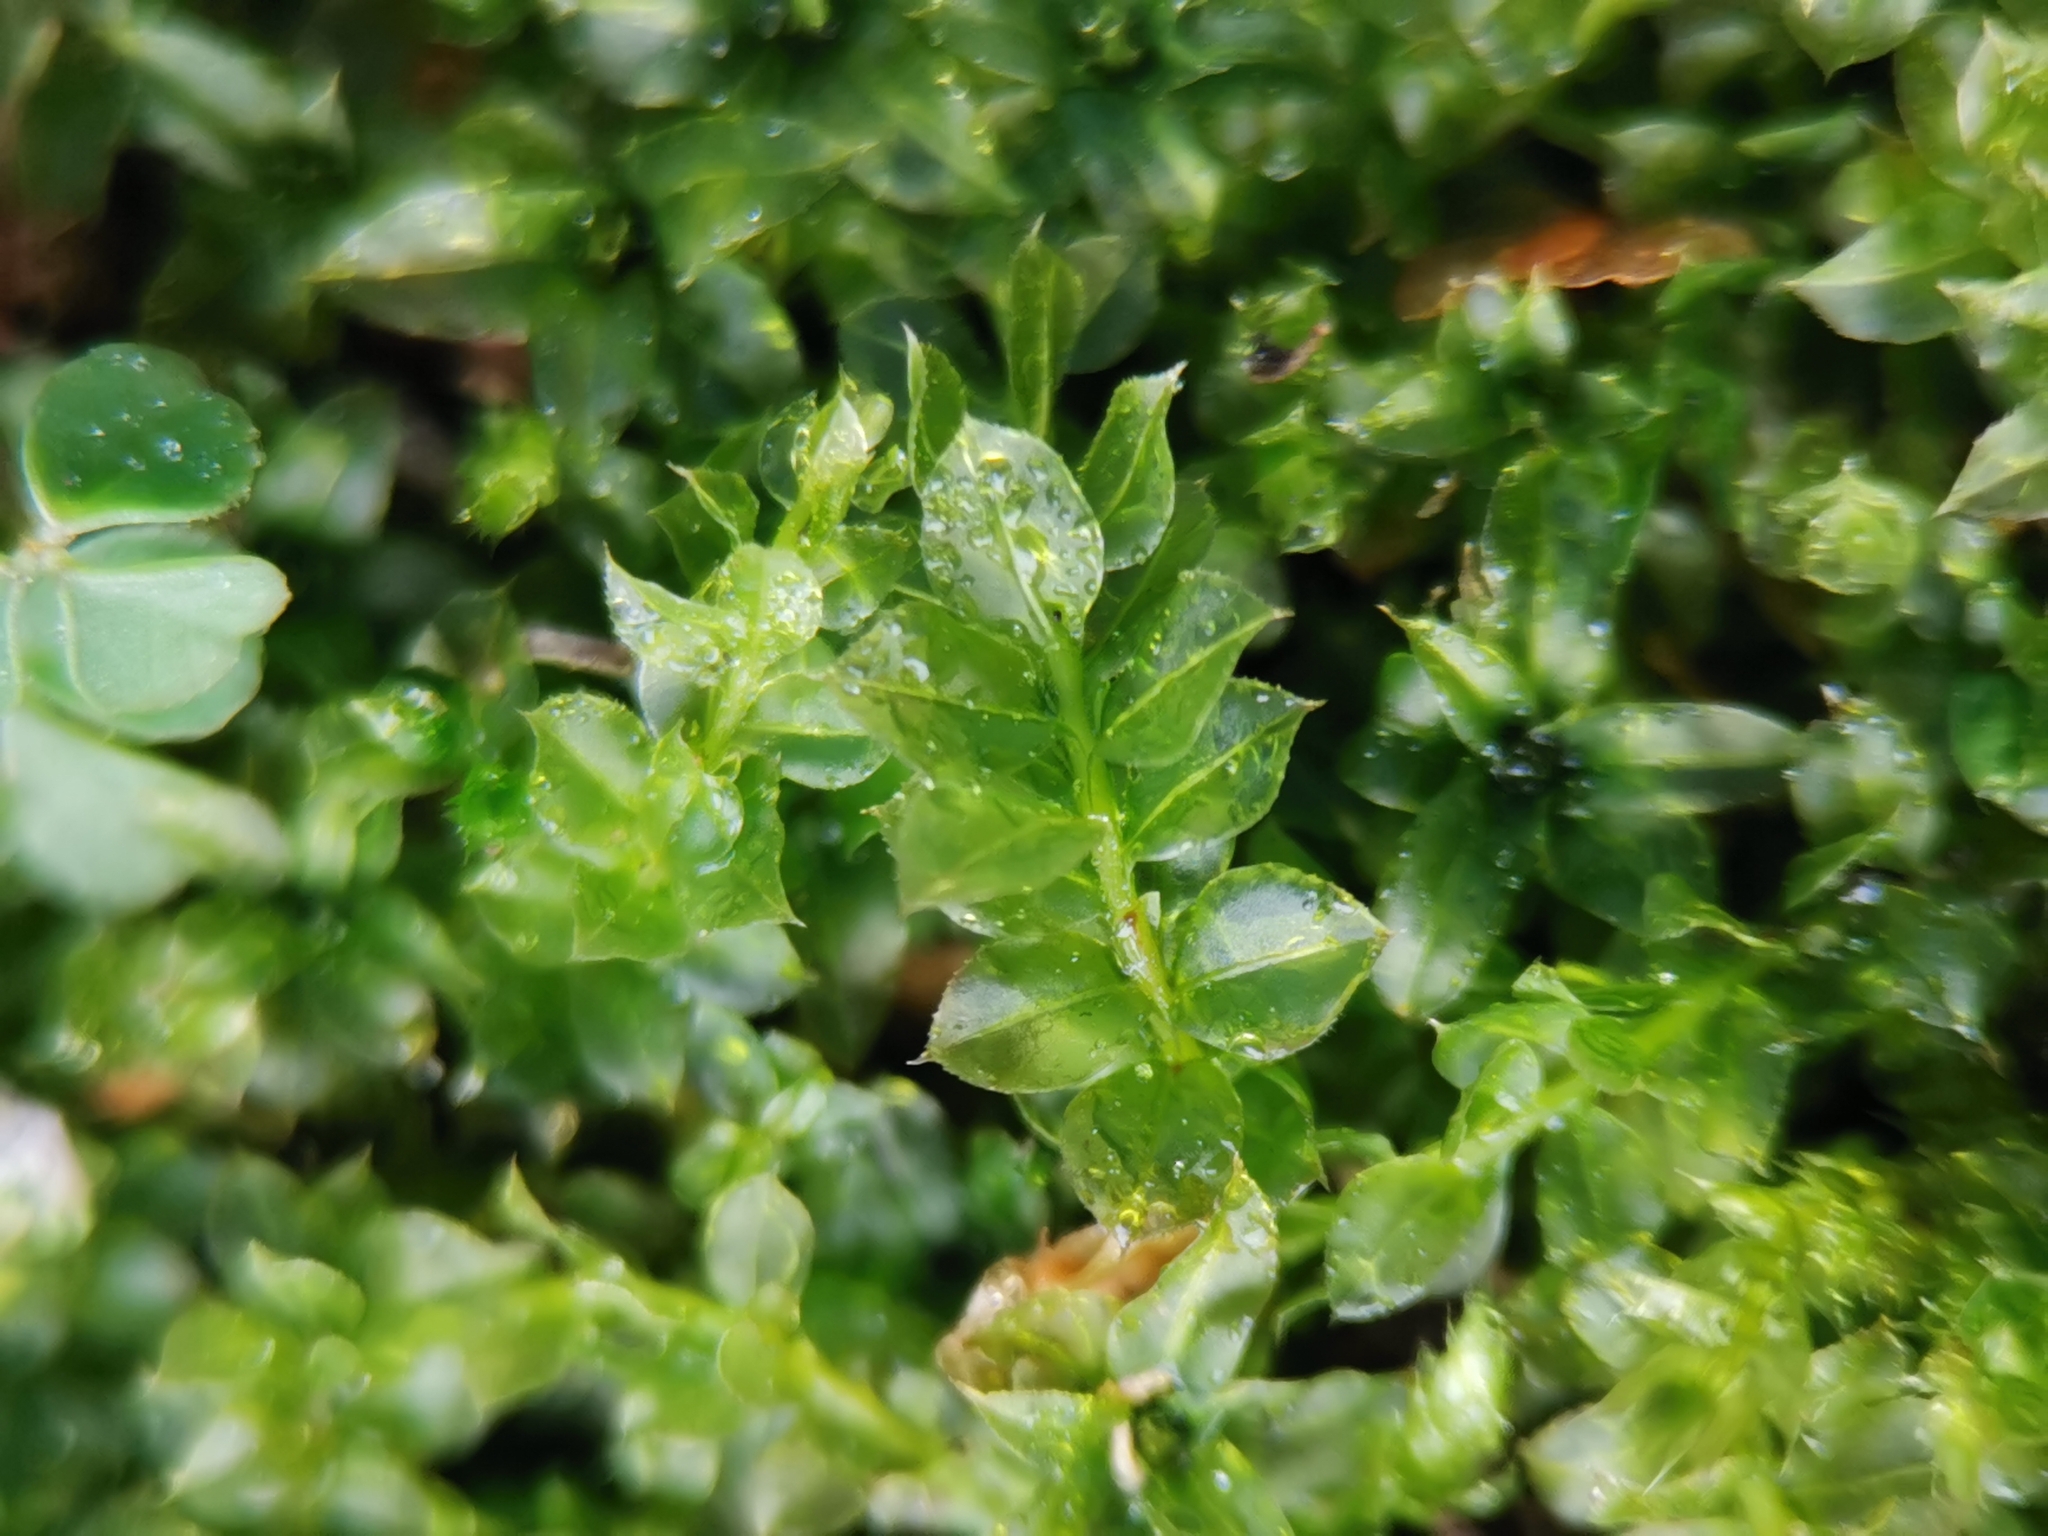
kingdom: Plantae
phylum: Bryophyta
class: Bryopsida
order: Bryales
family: Mniaceae
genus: Plagiomnium
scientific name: Plagiomnium cuspidatum
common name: Woodsy leafy moss
